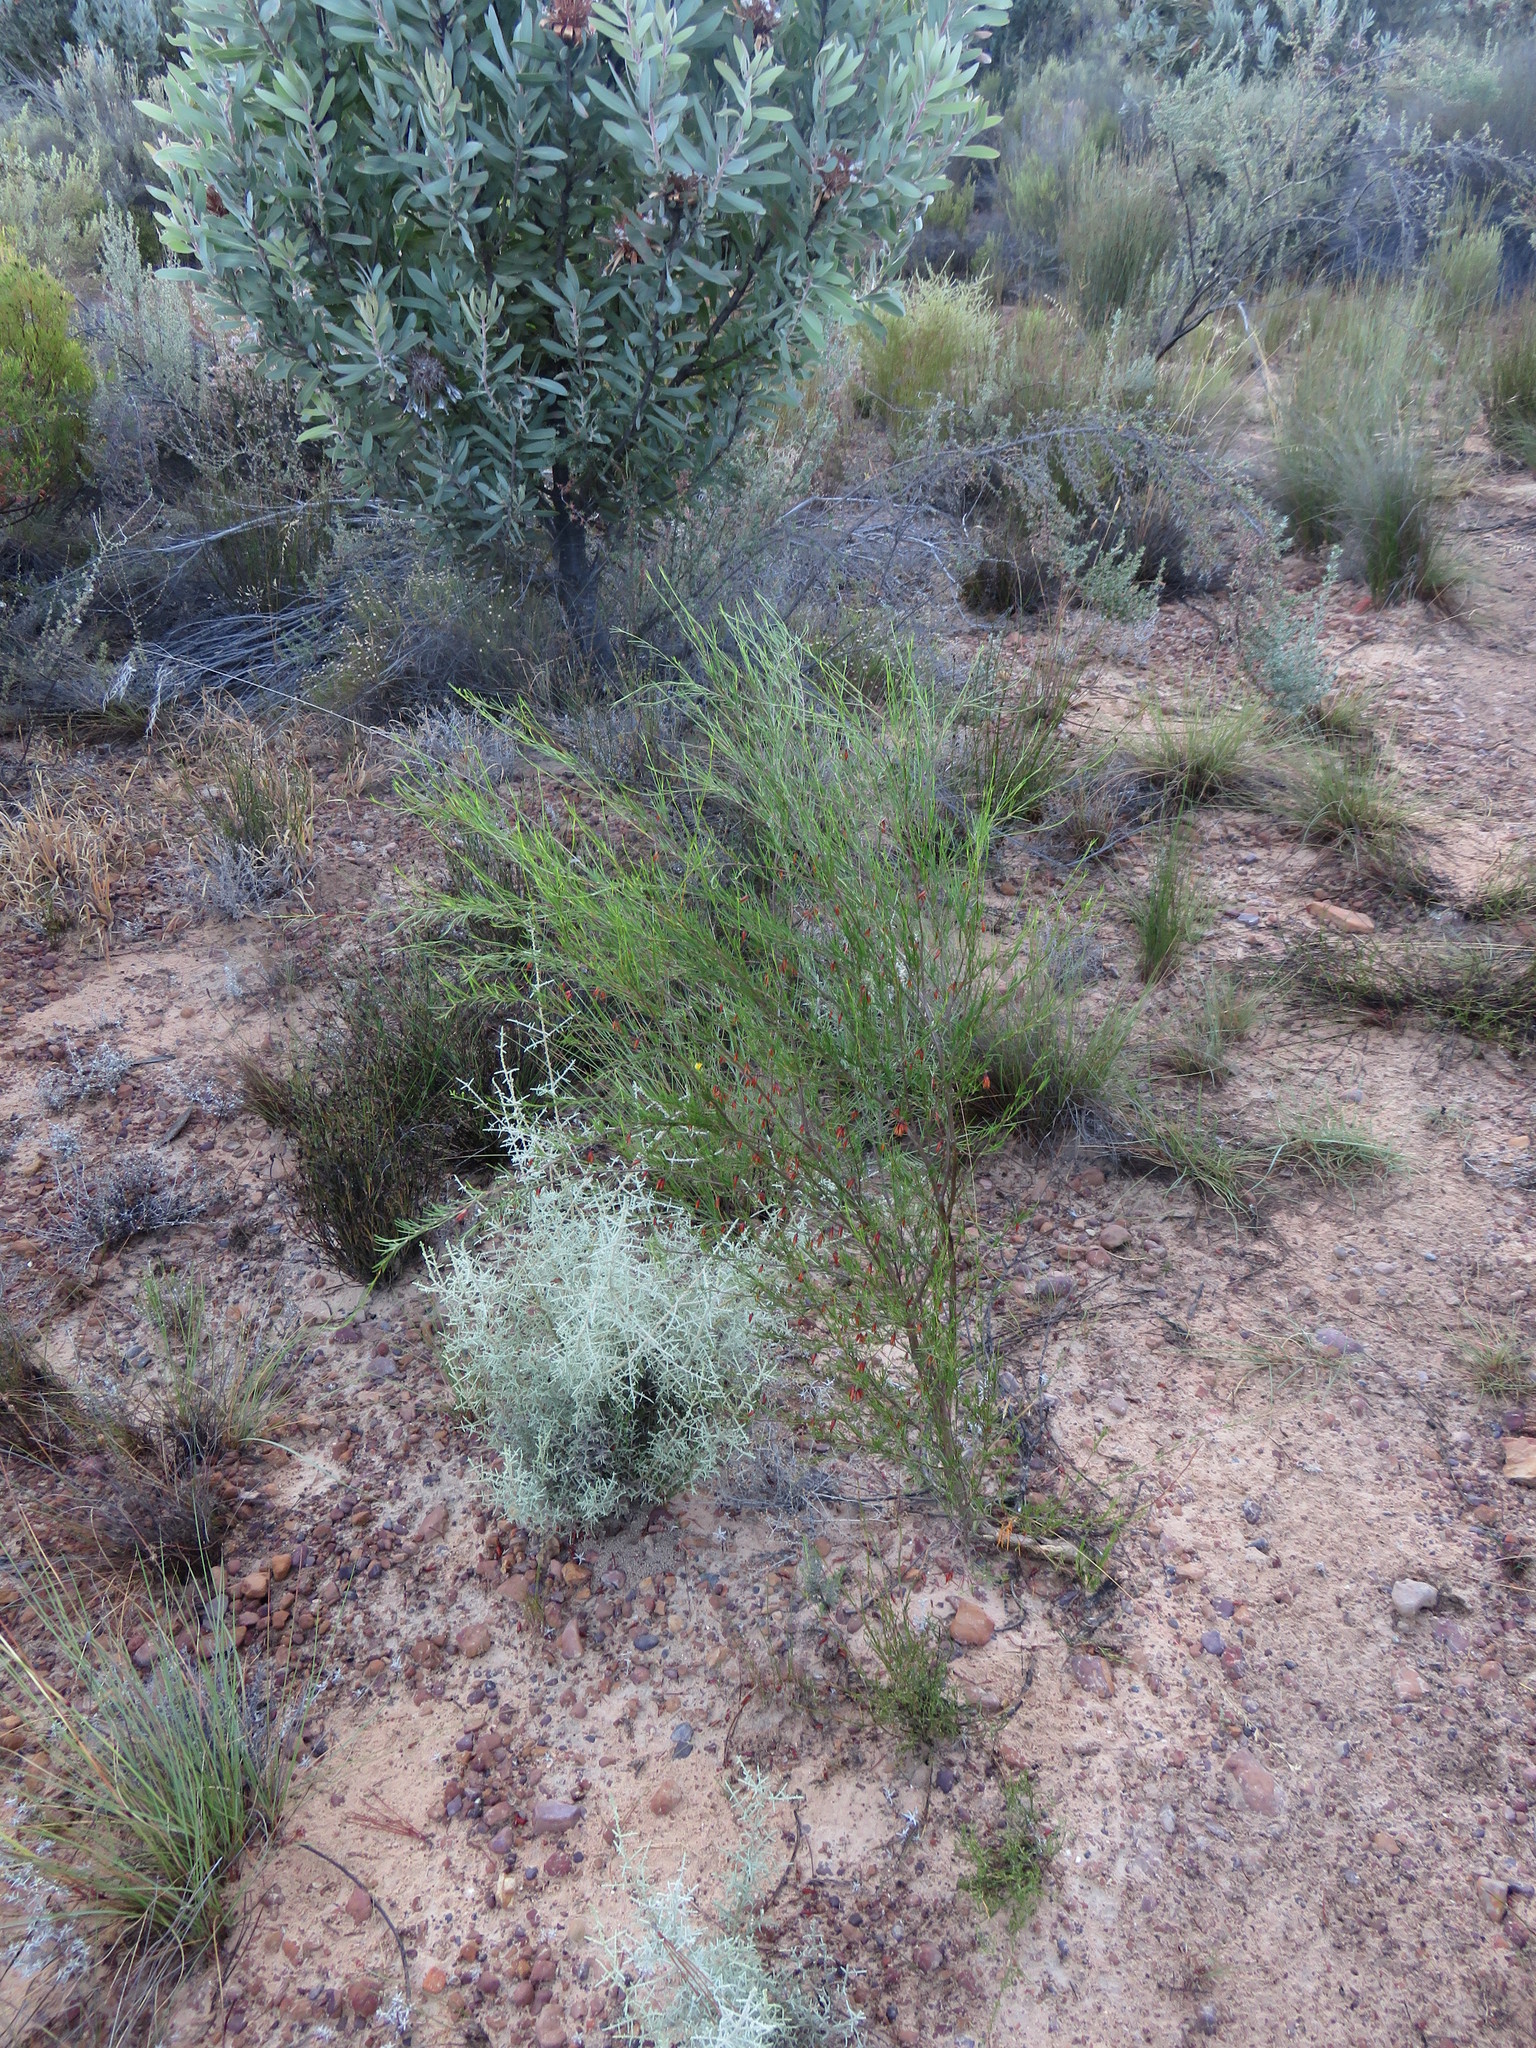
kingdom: Plantae
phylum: Tracheophyta
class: Magnoliopsida
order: Fabales
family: Fabaceae
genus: Aspalathus
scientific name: Aspalathus linearis
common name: Rooibos-tea
